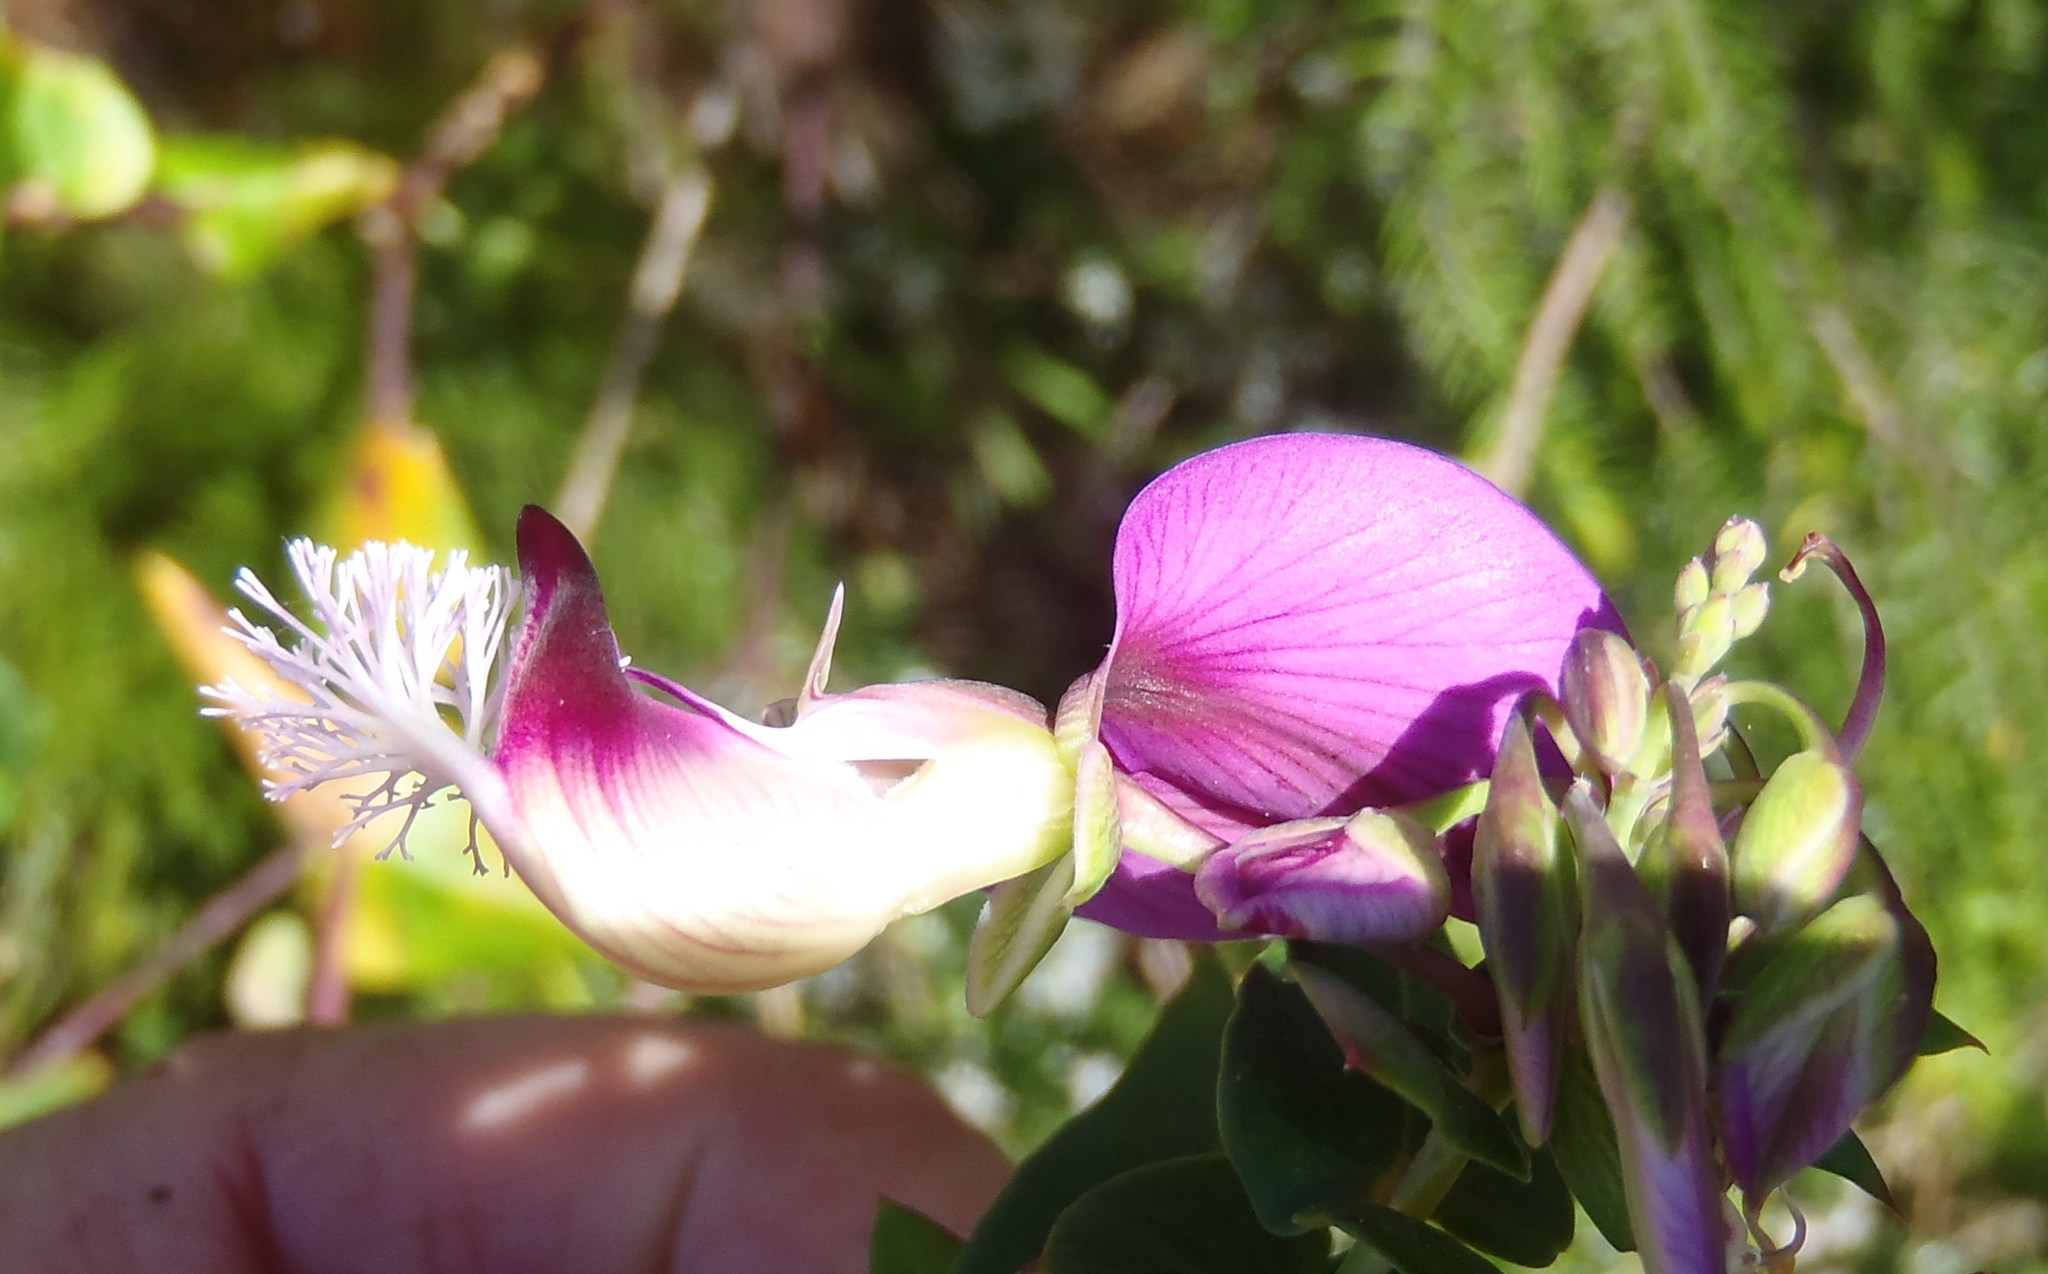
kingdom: Plantae
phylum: Tracheophyta
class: Magnoliopsida
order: Fabales
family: Polygalaceae
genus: Polygala
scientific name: Polygala fruticosa
